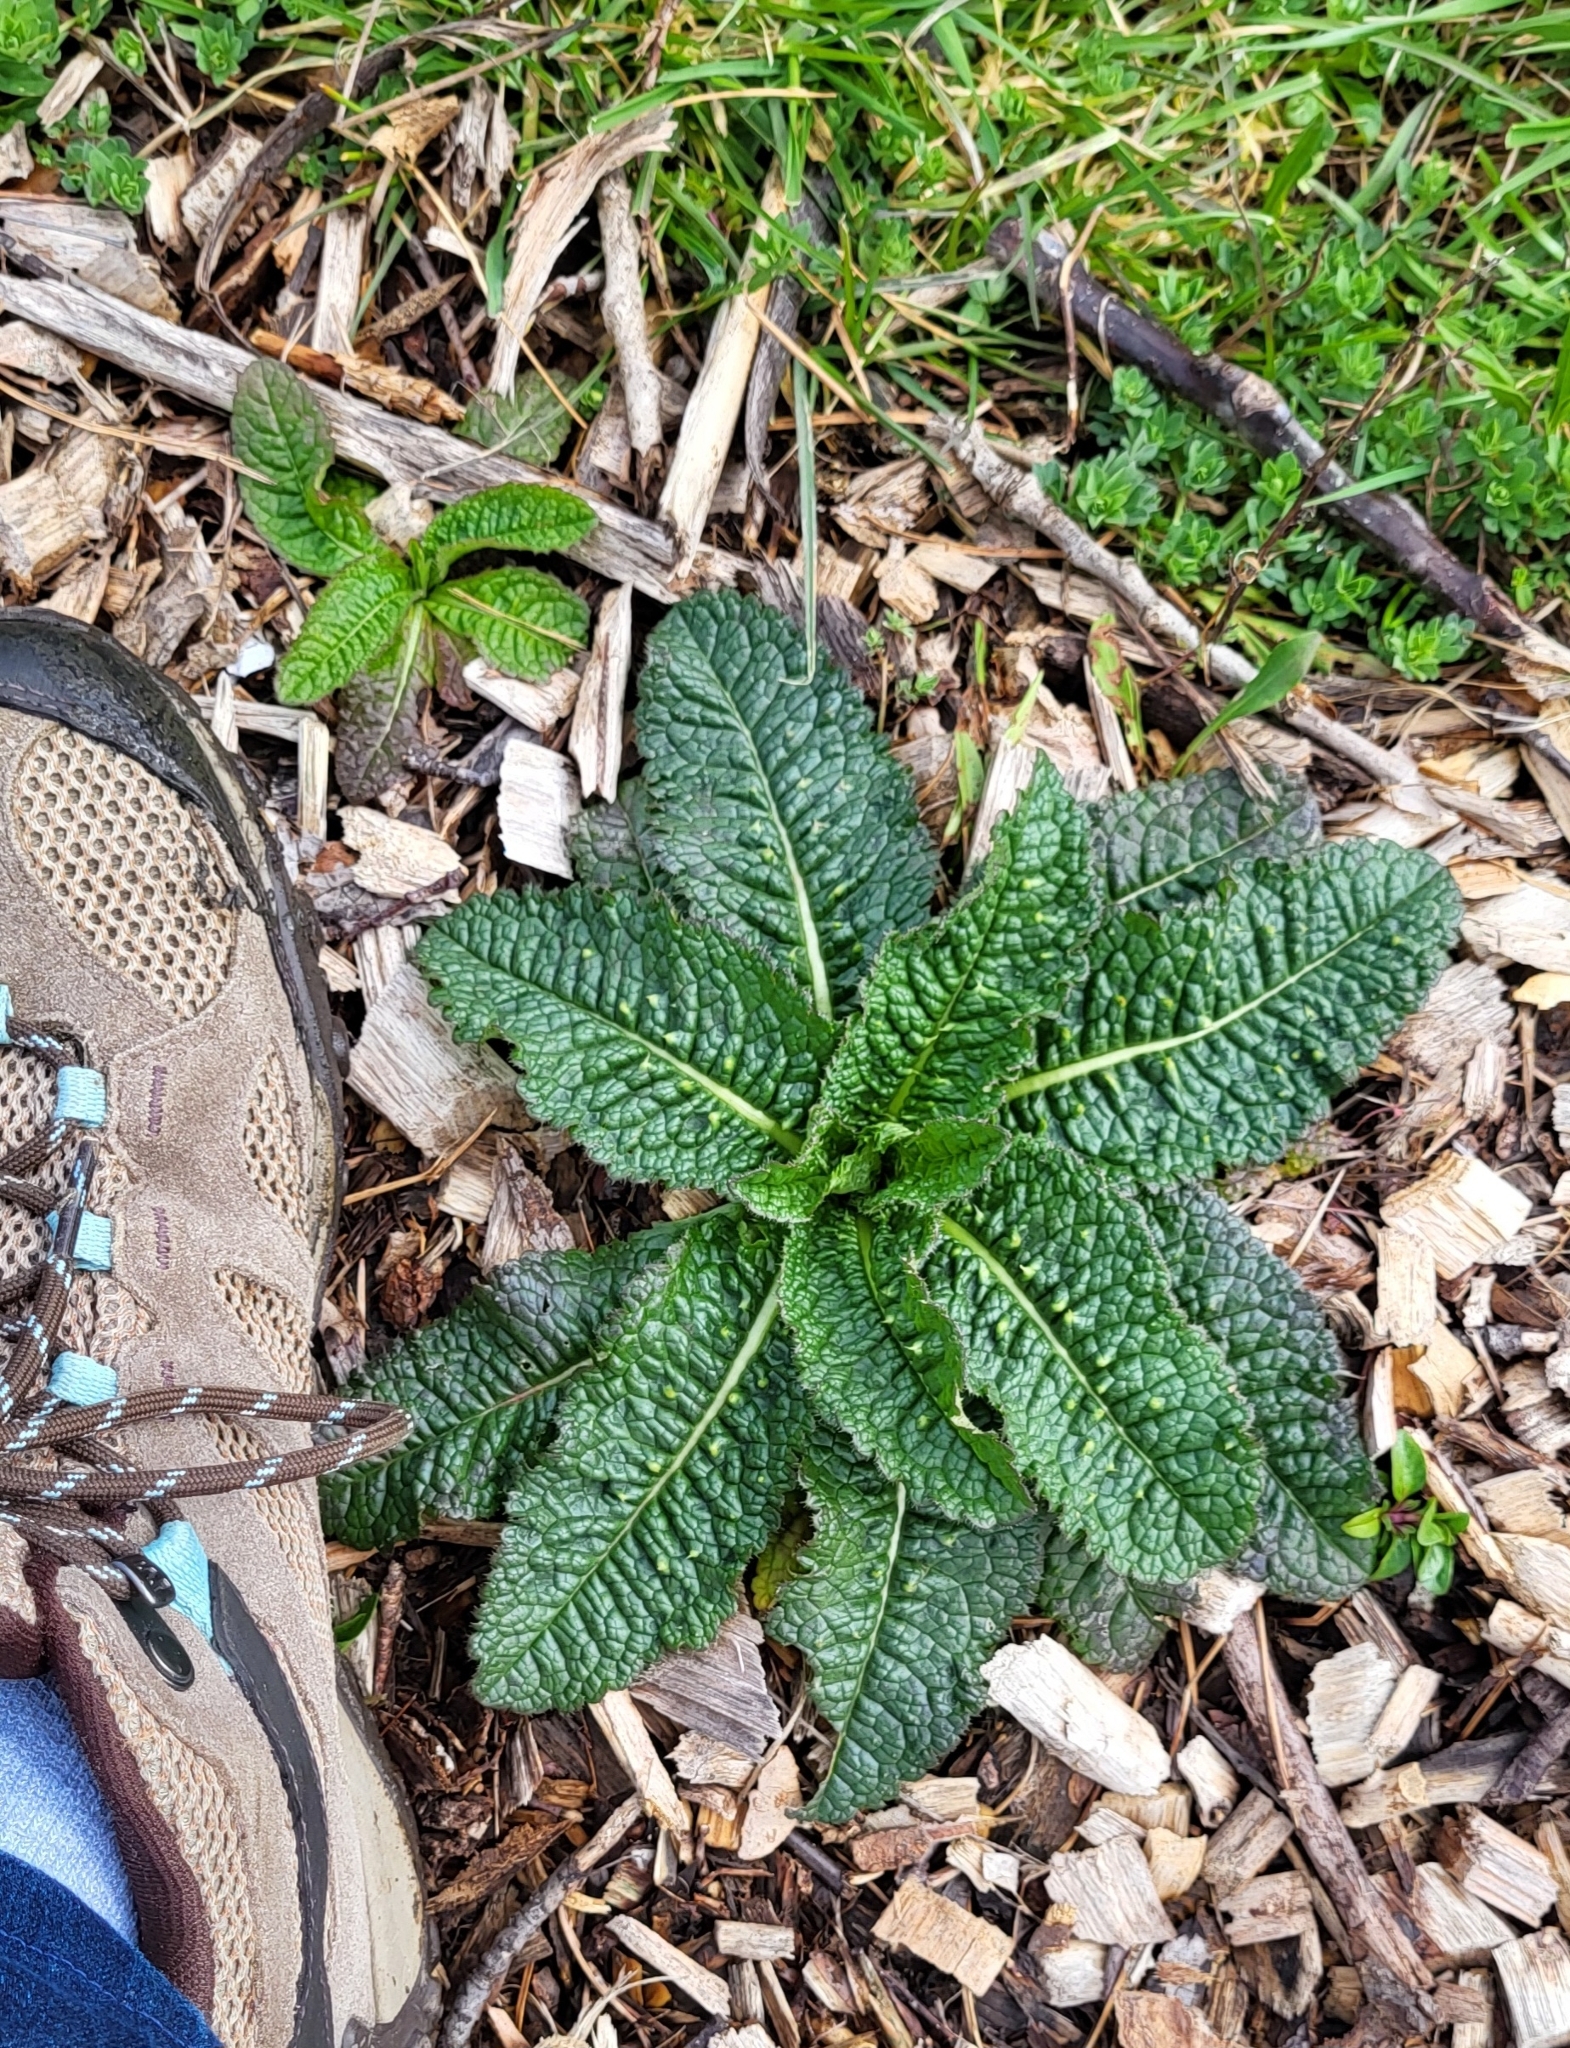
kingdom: Plantae
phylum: Tracheophyta
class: Magnoliopsida
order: Dipsacales
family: Caprifoliaceae
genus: Dipsacus
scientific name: Dipsacus fullonum
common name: Teasel
